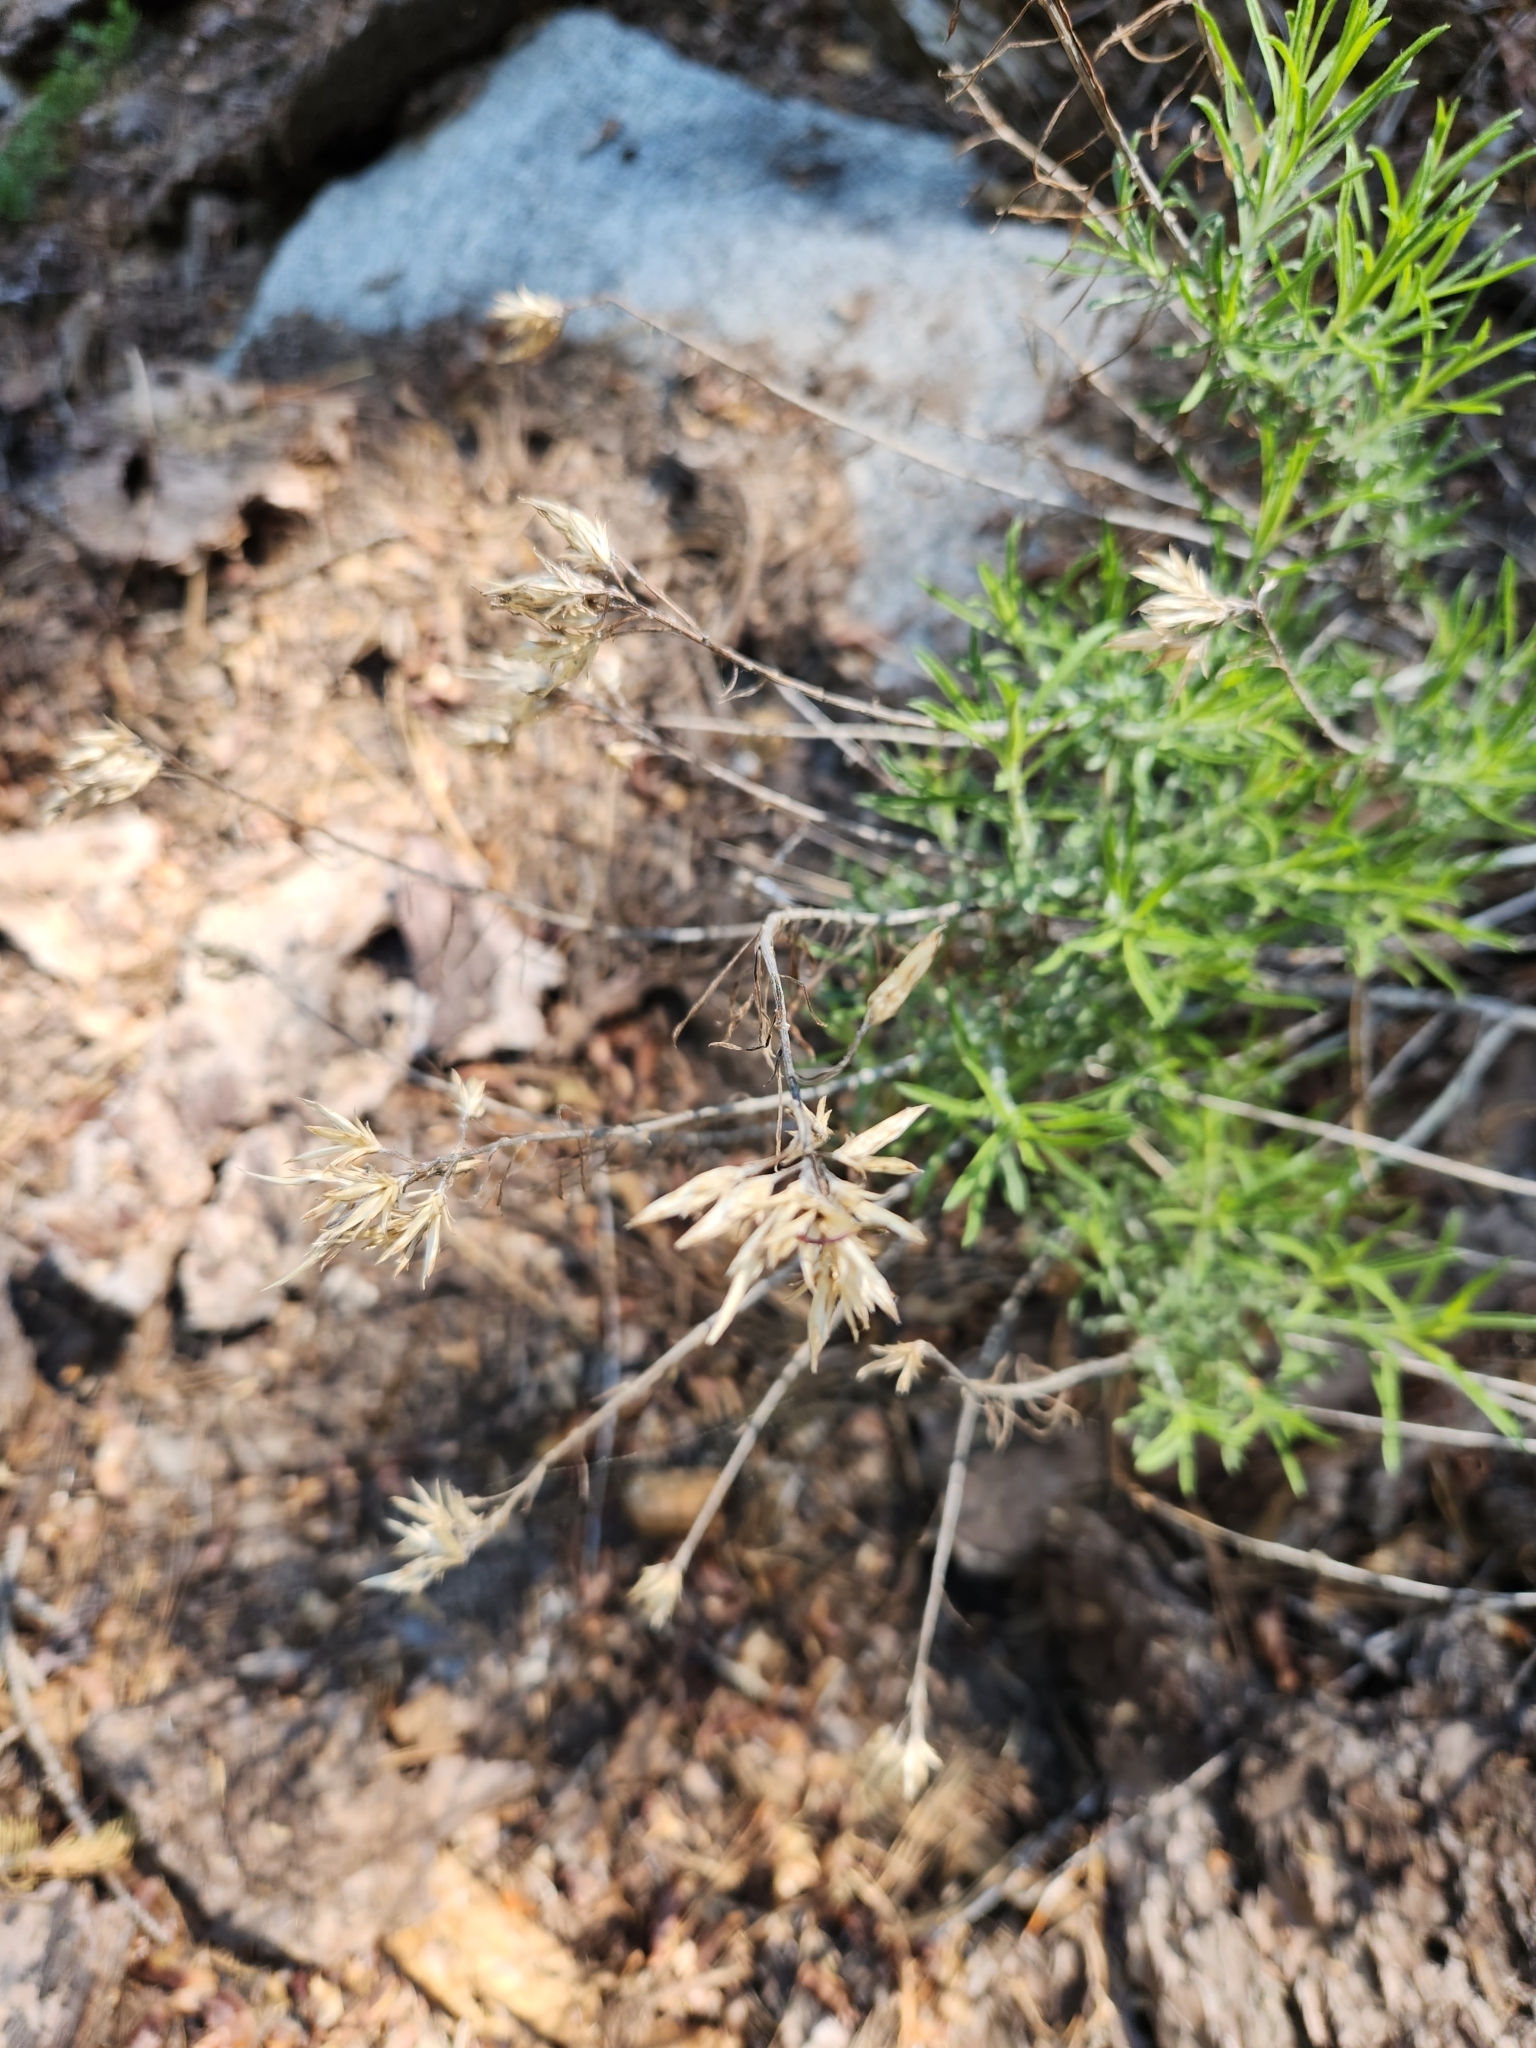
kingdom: Plantae
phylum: Tracheophyta
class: Magnoliopsida
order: Asterales
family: Asteraceae
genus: Ericameria
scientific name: Ericameria nauseosa
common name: Rubber rabbitbrush
